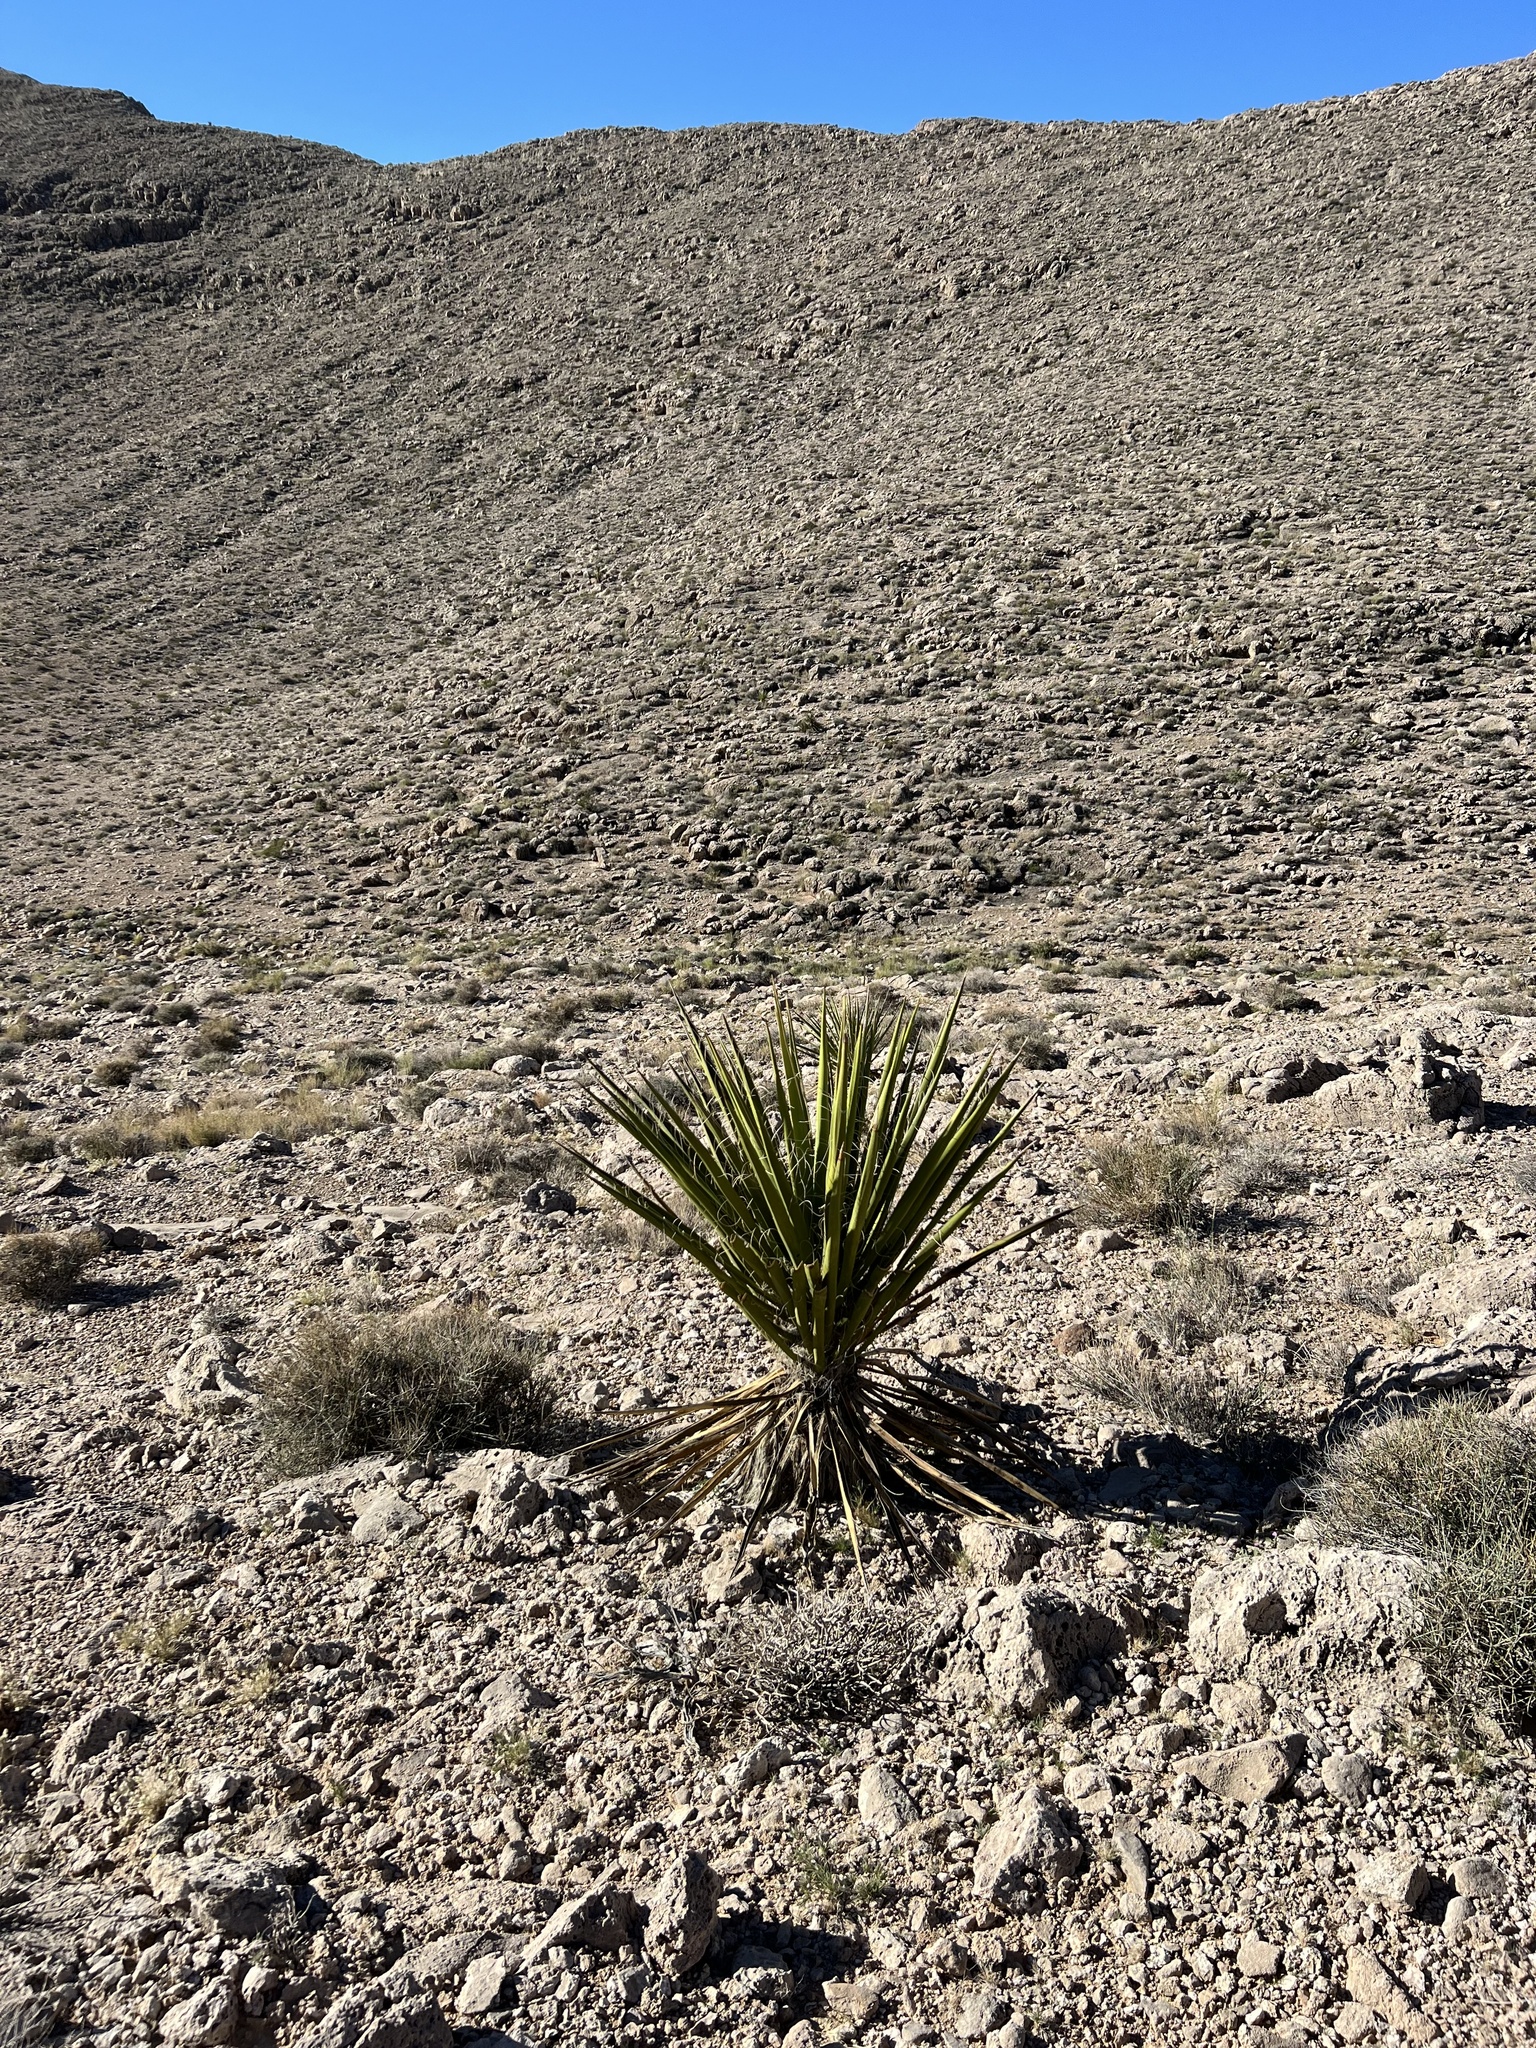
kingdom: Plantae
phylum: Tracheophyta
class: Liliopsida
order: Asparagales
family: Asparagaceae
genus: Yucca
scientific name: Yucca schidigera
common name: Mojave yucca
